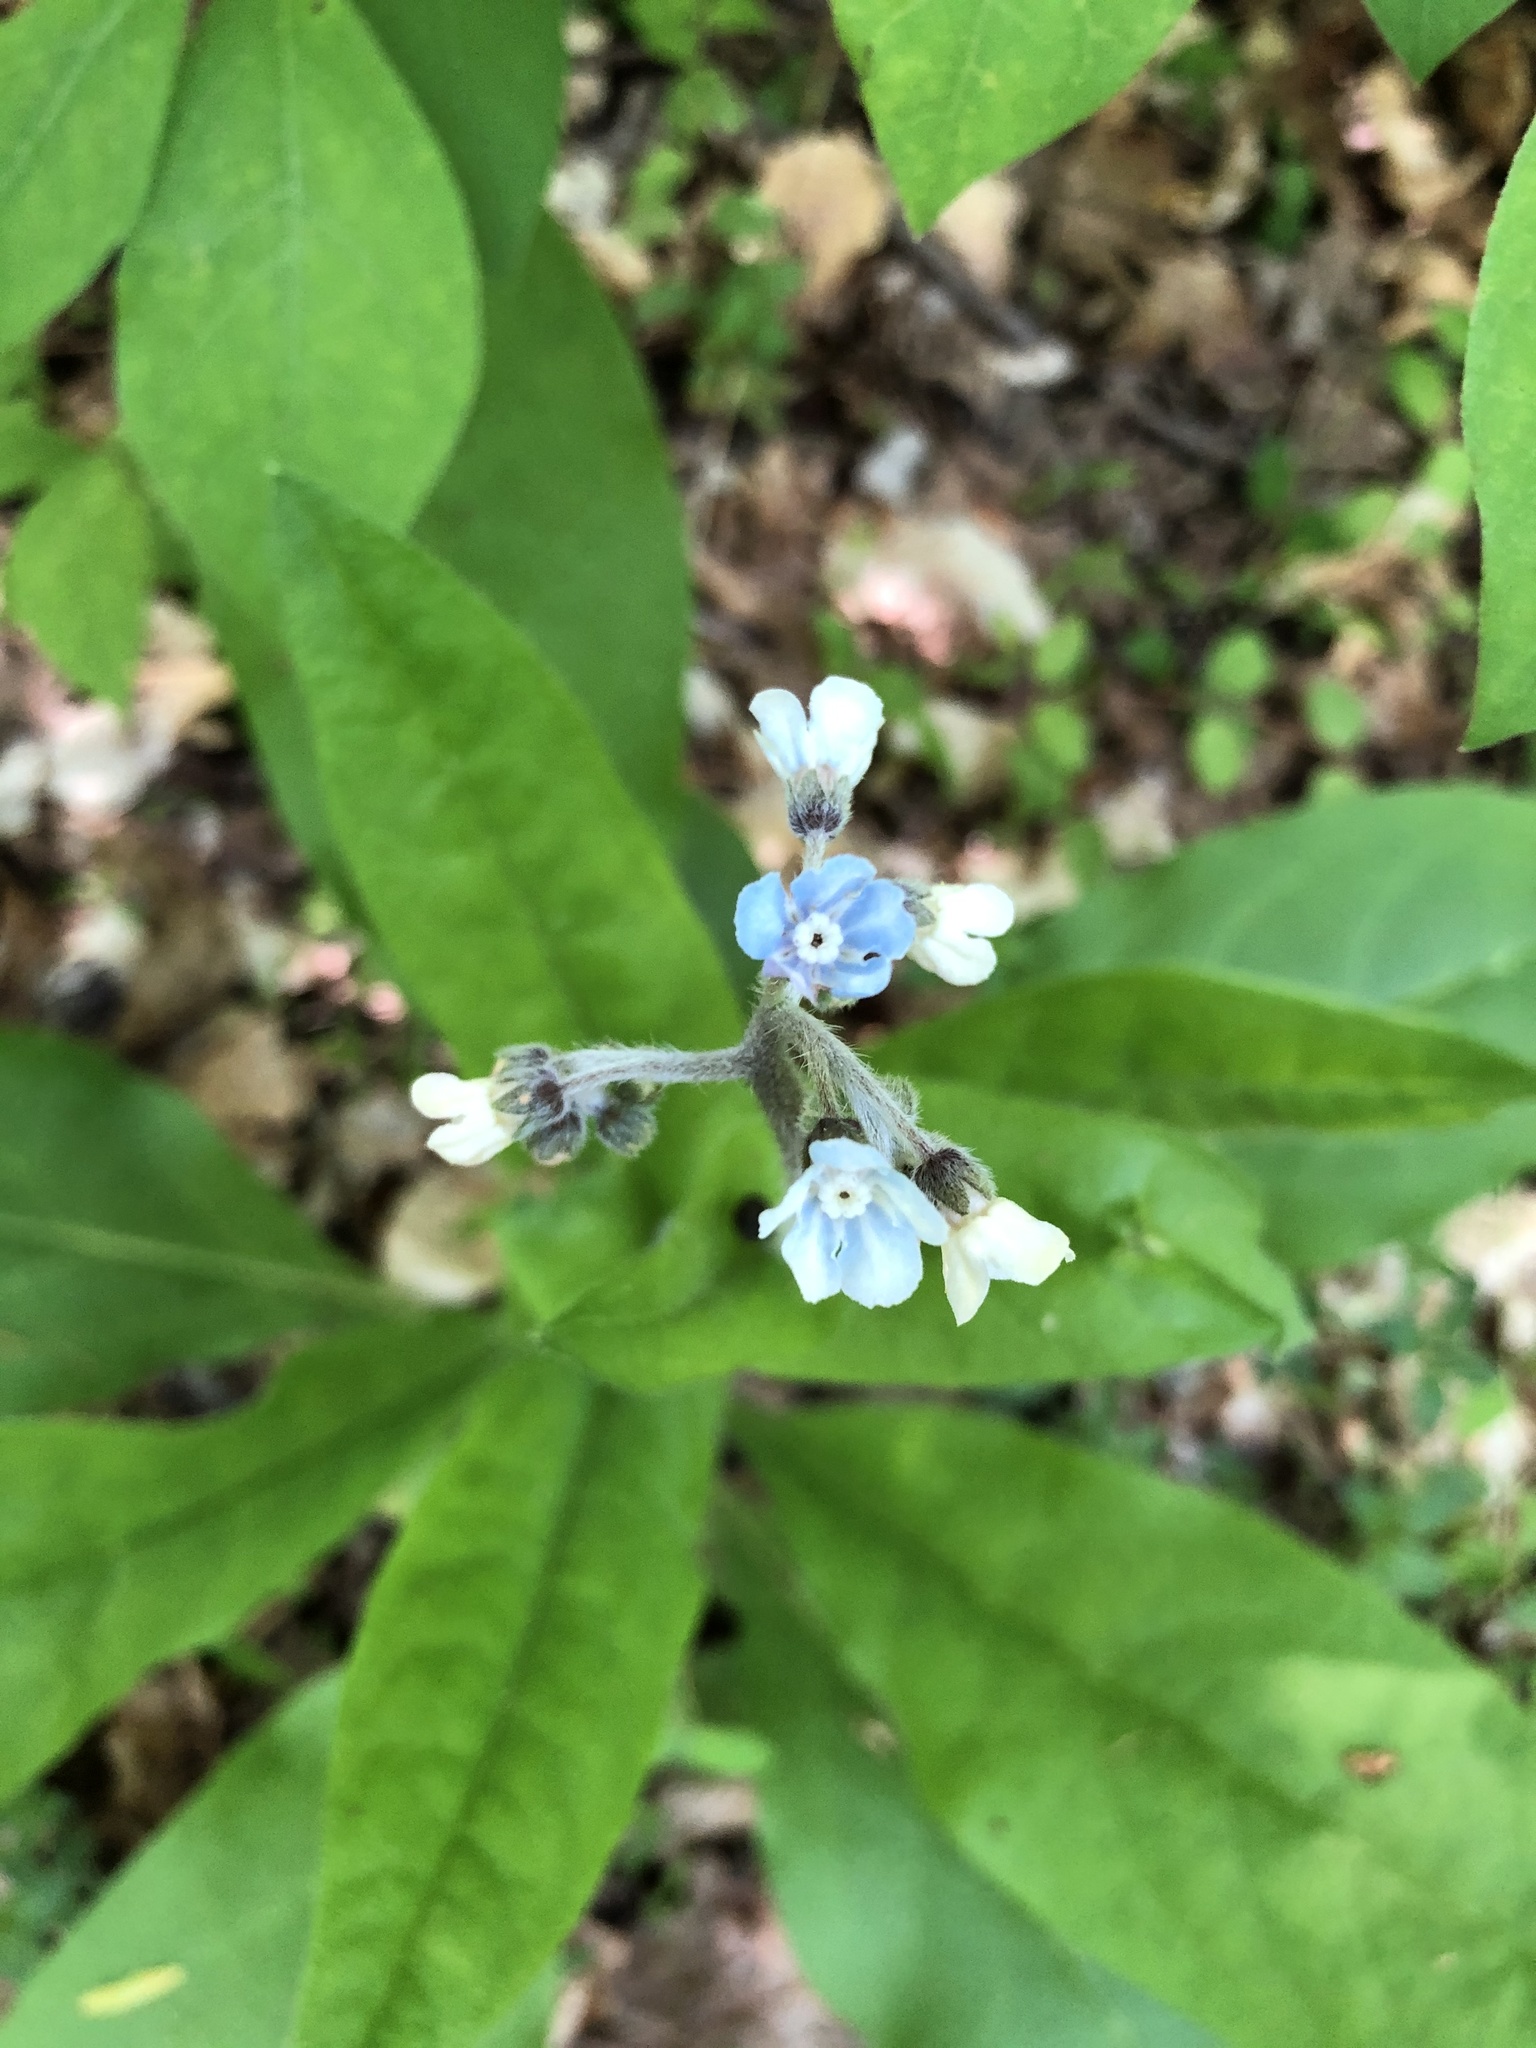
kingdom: Plantae
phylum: Tracheophyta
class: Magnoliopsida
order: Boraginales
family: Boraginaceae
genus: Andersonglossum
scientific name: Andersonglossum virginianum
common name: Wild comfrey
